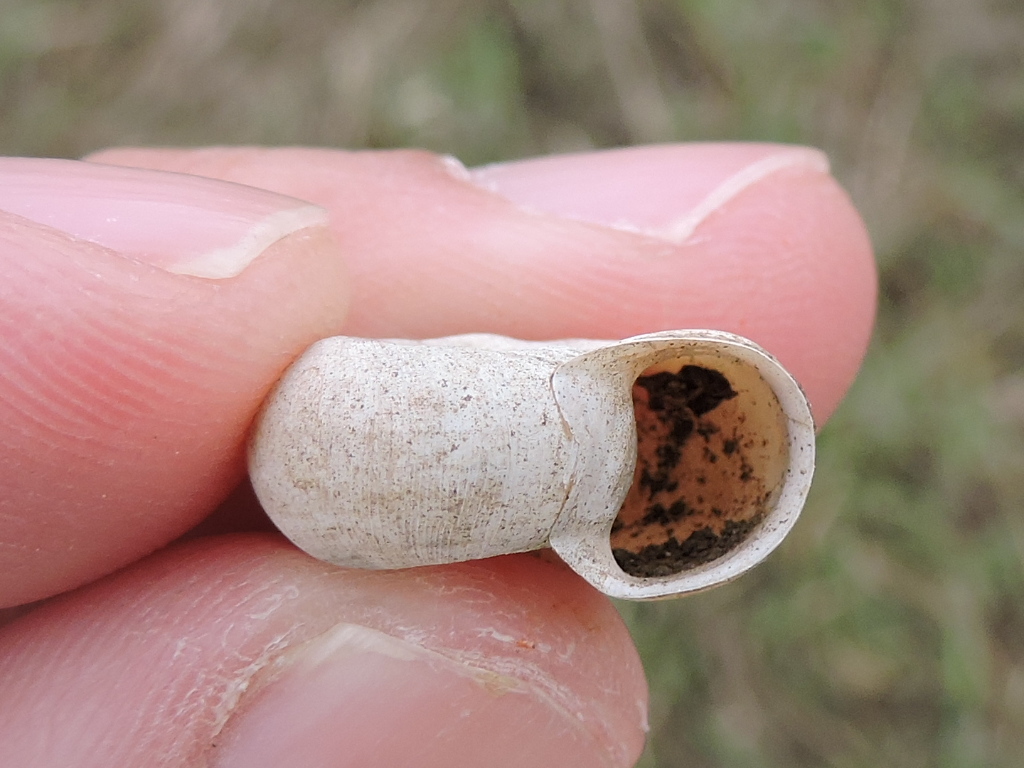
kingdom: Animalia
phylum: Mollusca
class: Gastropoda
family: Planorbidae
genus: Planorbella
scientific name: Planorbella trivolvis
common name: Marsh rams-horn
